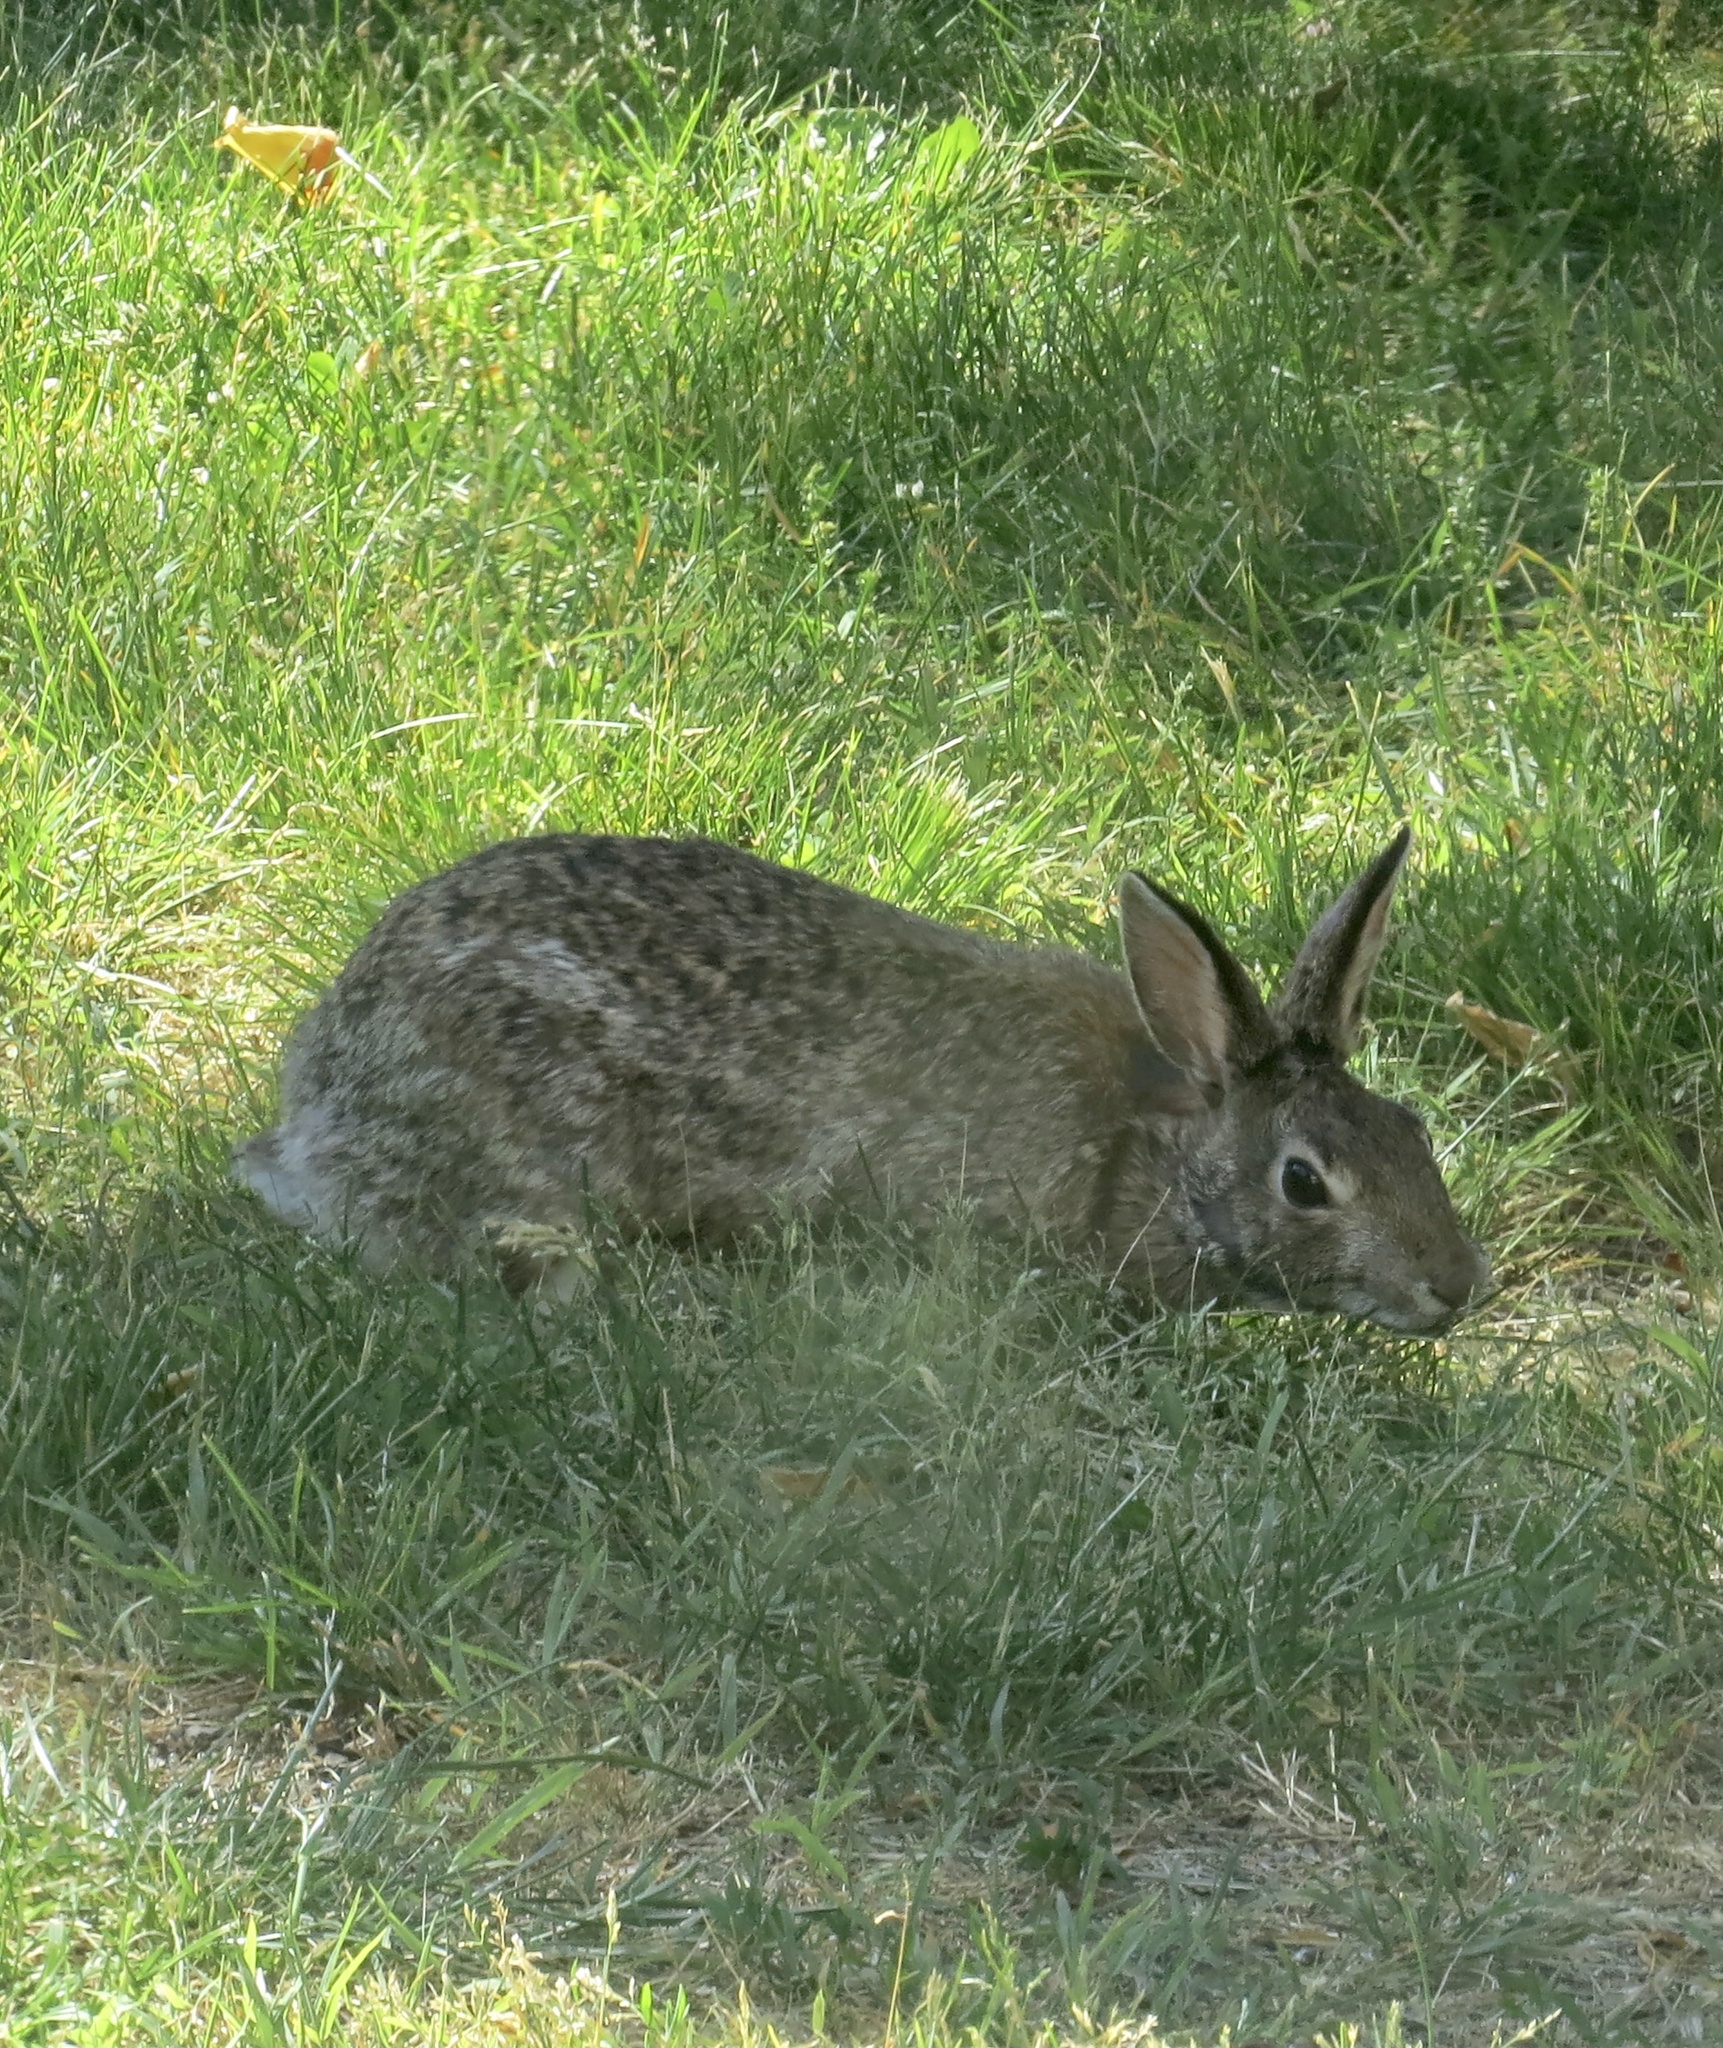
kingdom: Animalia
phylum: Chordata
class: Mammalia
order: Lagomorpha
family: Leporidae
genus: Sylvilagus
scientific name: Sylvilagus floridanus
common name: Eastern cottontail
